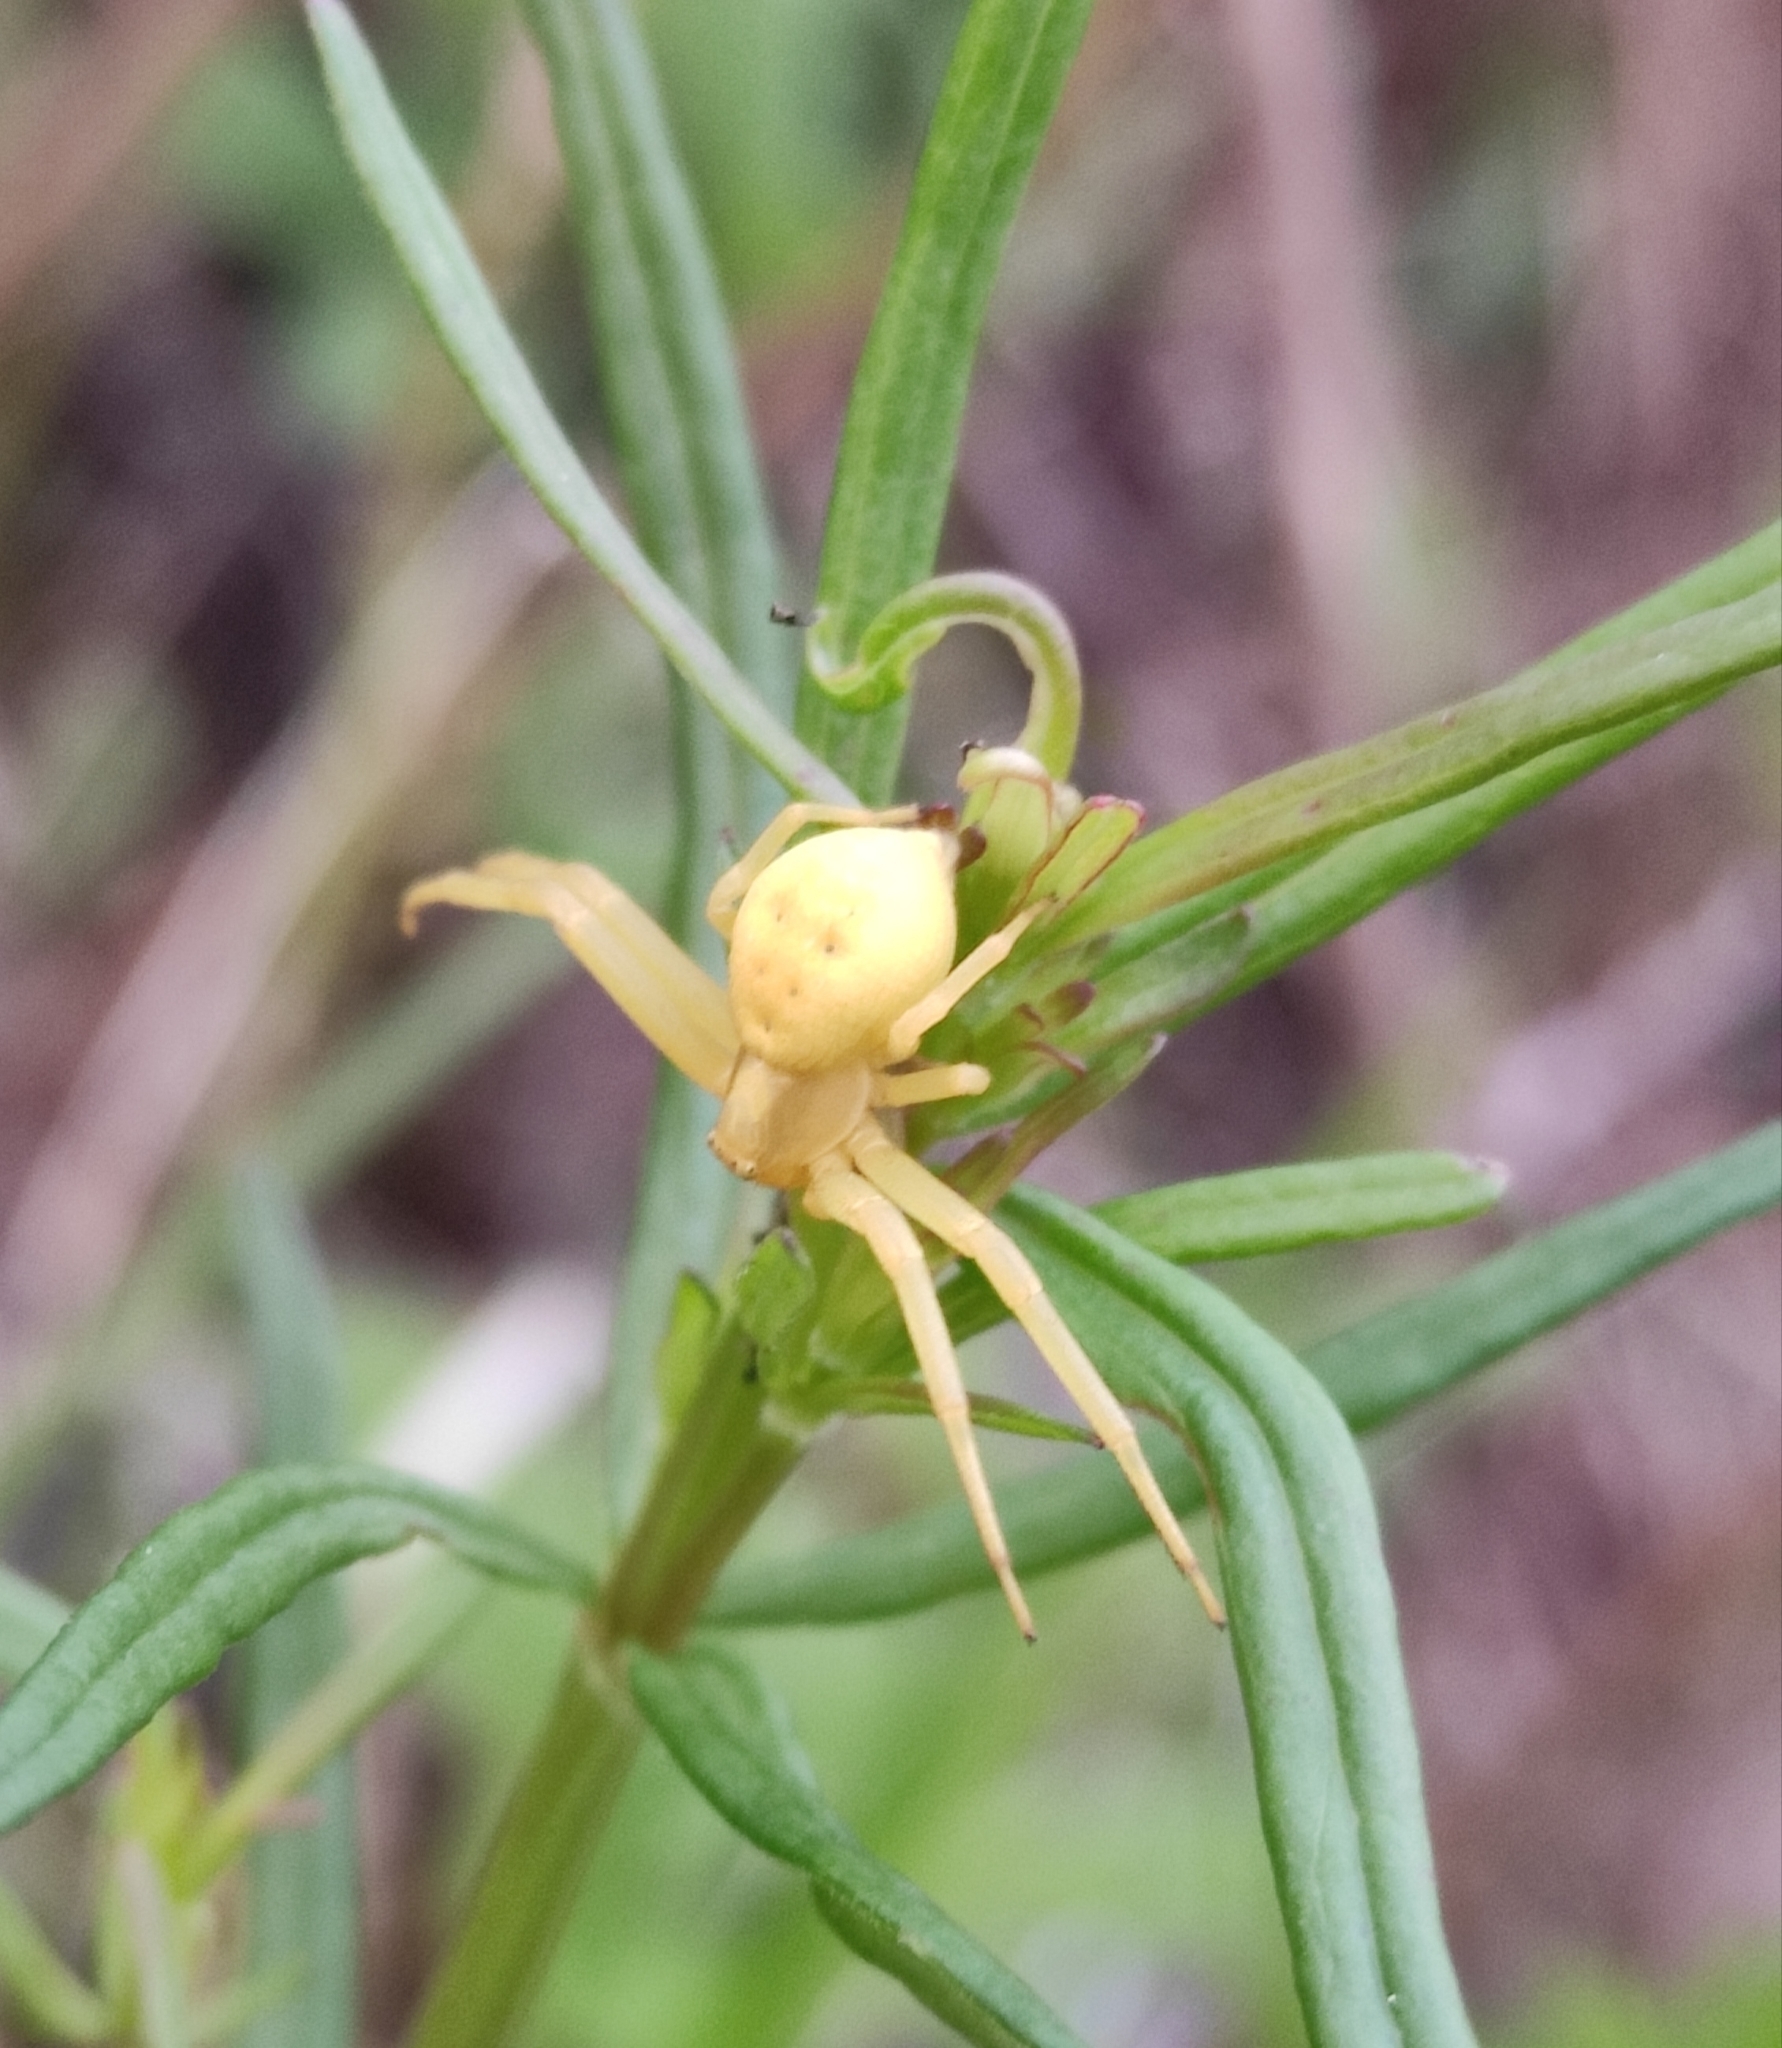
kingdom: Animalia
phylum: Arthropoda
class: Arachnida
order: Araneae
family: Thomisidae
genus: Misumena
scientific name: Misumena vatia
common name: Goldenrod crab spider
